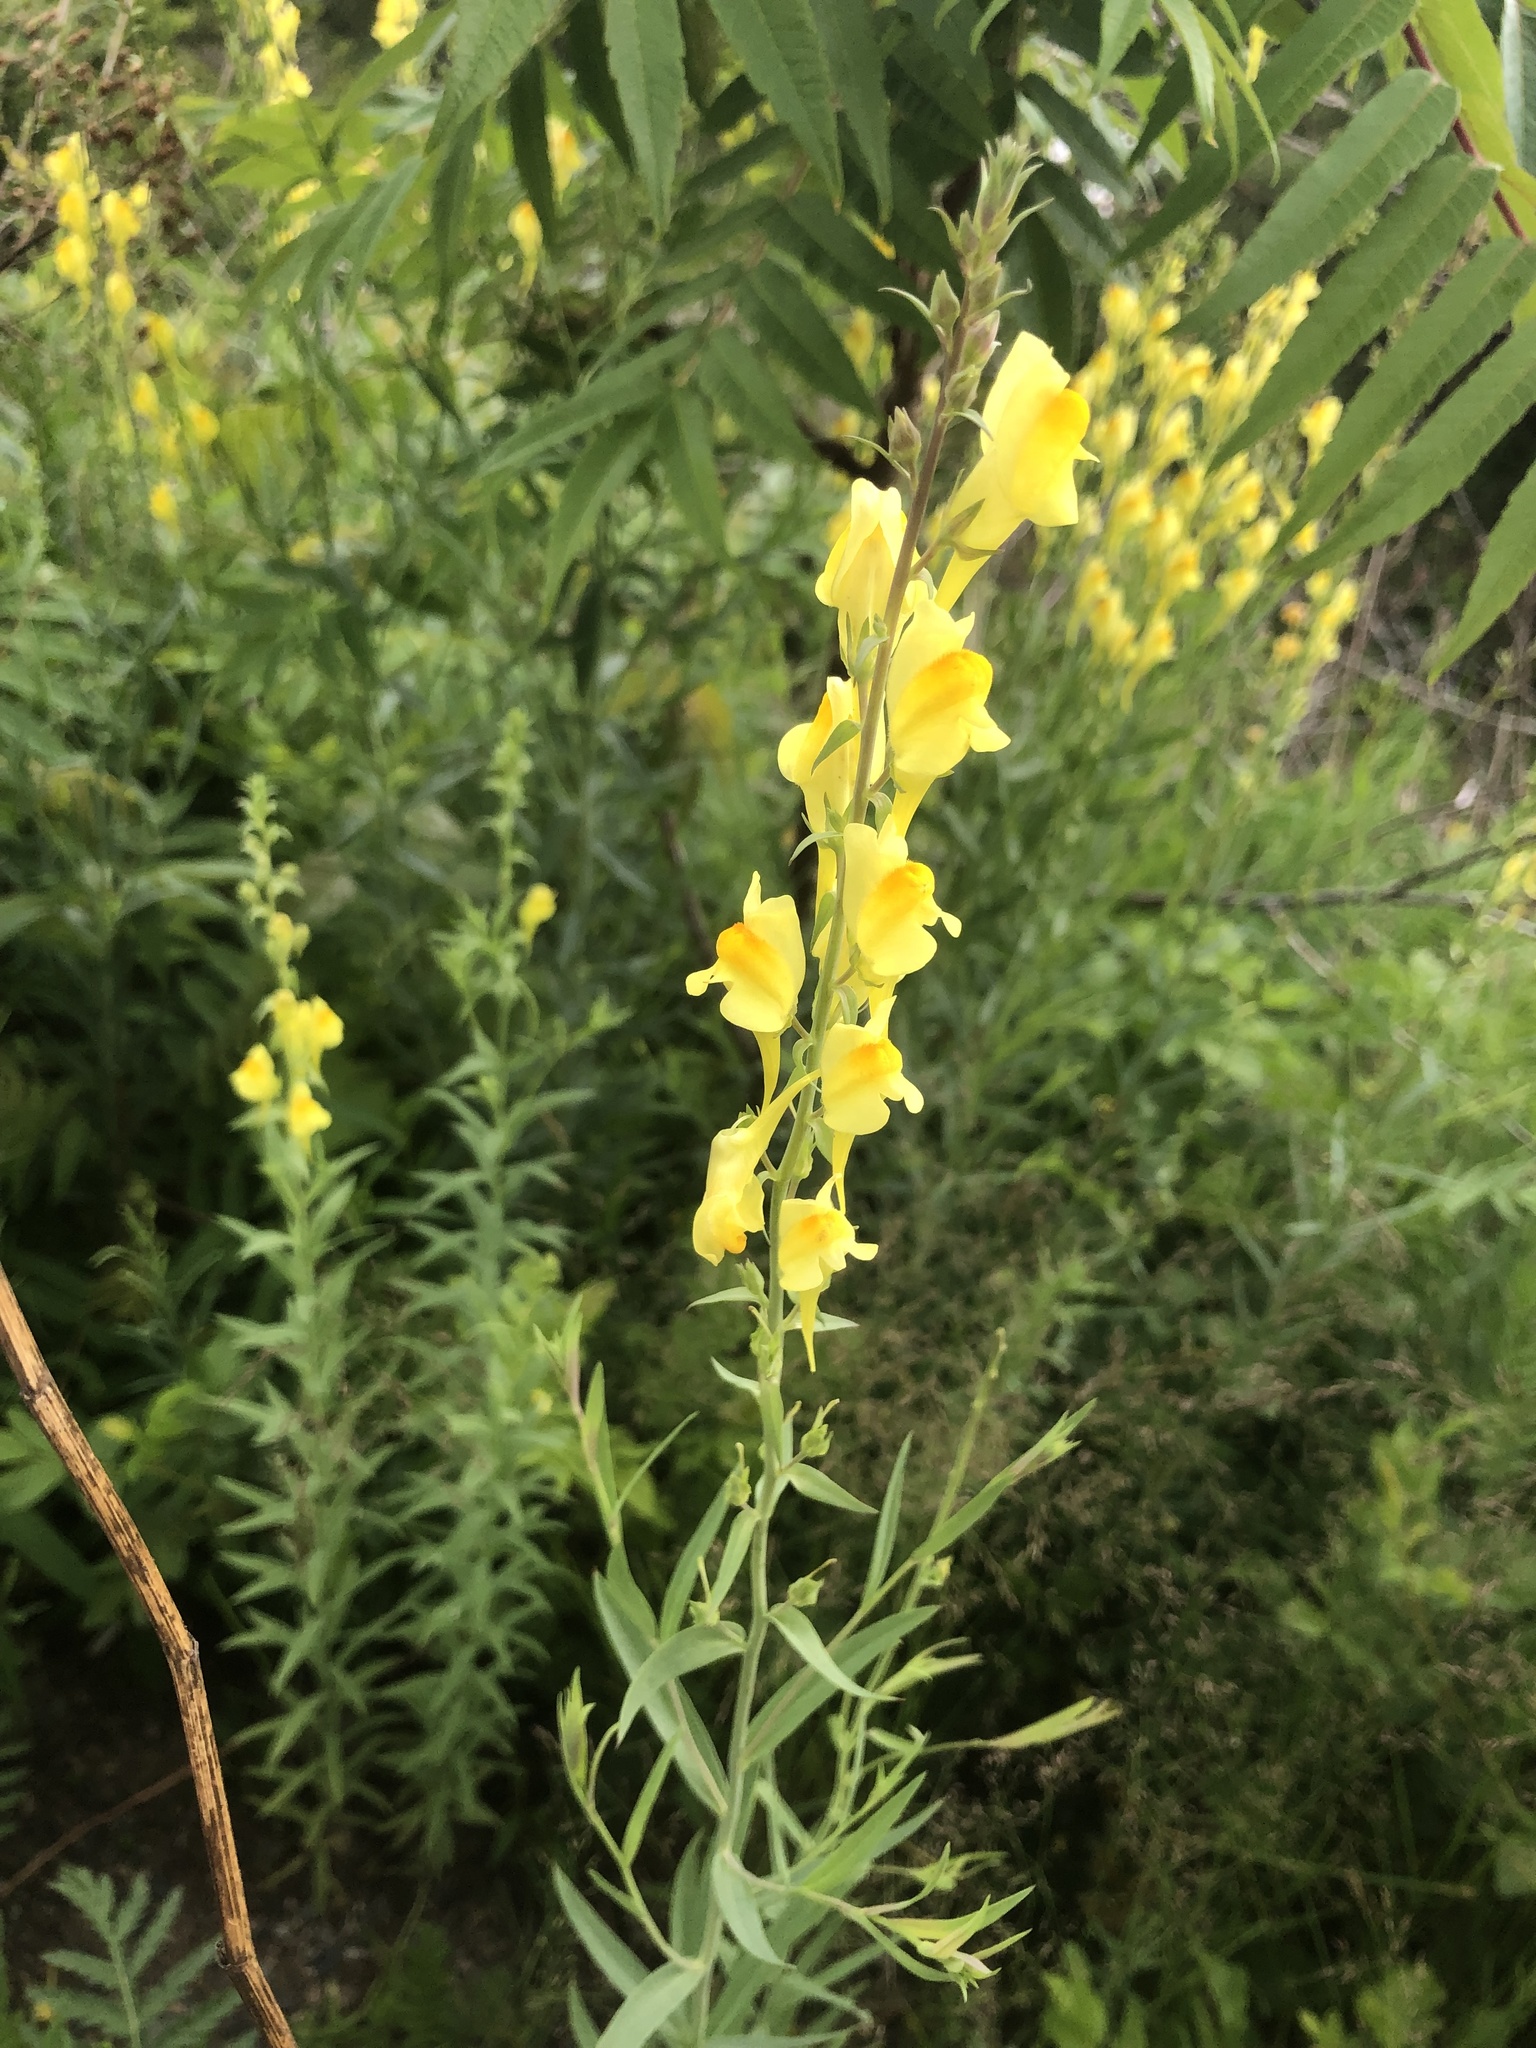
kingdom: Plantae
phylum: Tracheophyta
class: Magnoliopsida
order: Lamiales
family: Plantaginaceae
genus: Linaria
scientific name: Linaria vulgaris
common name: Butter and eggs
